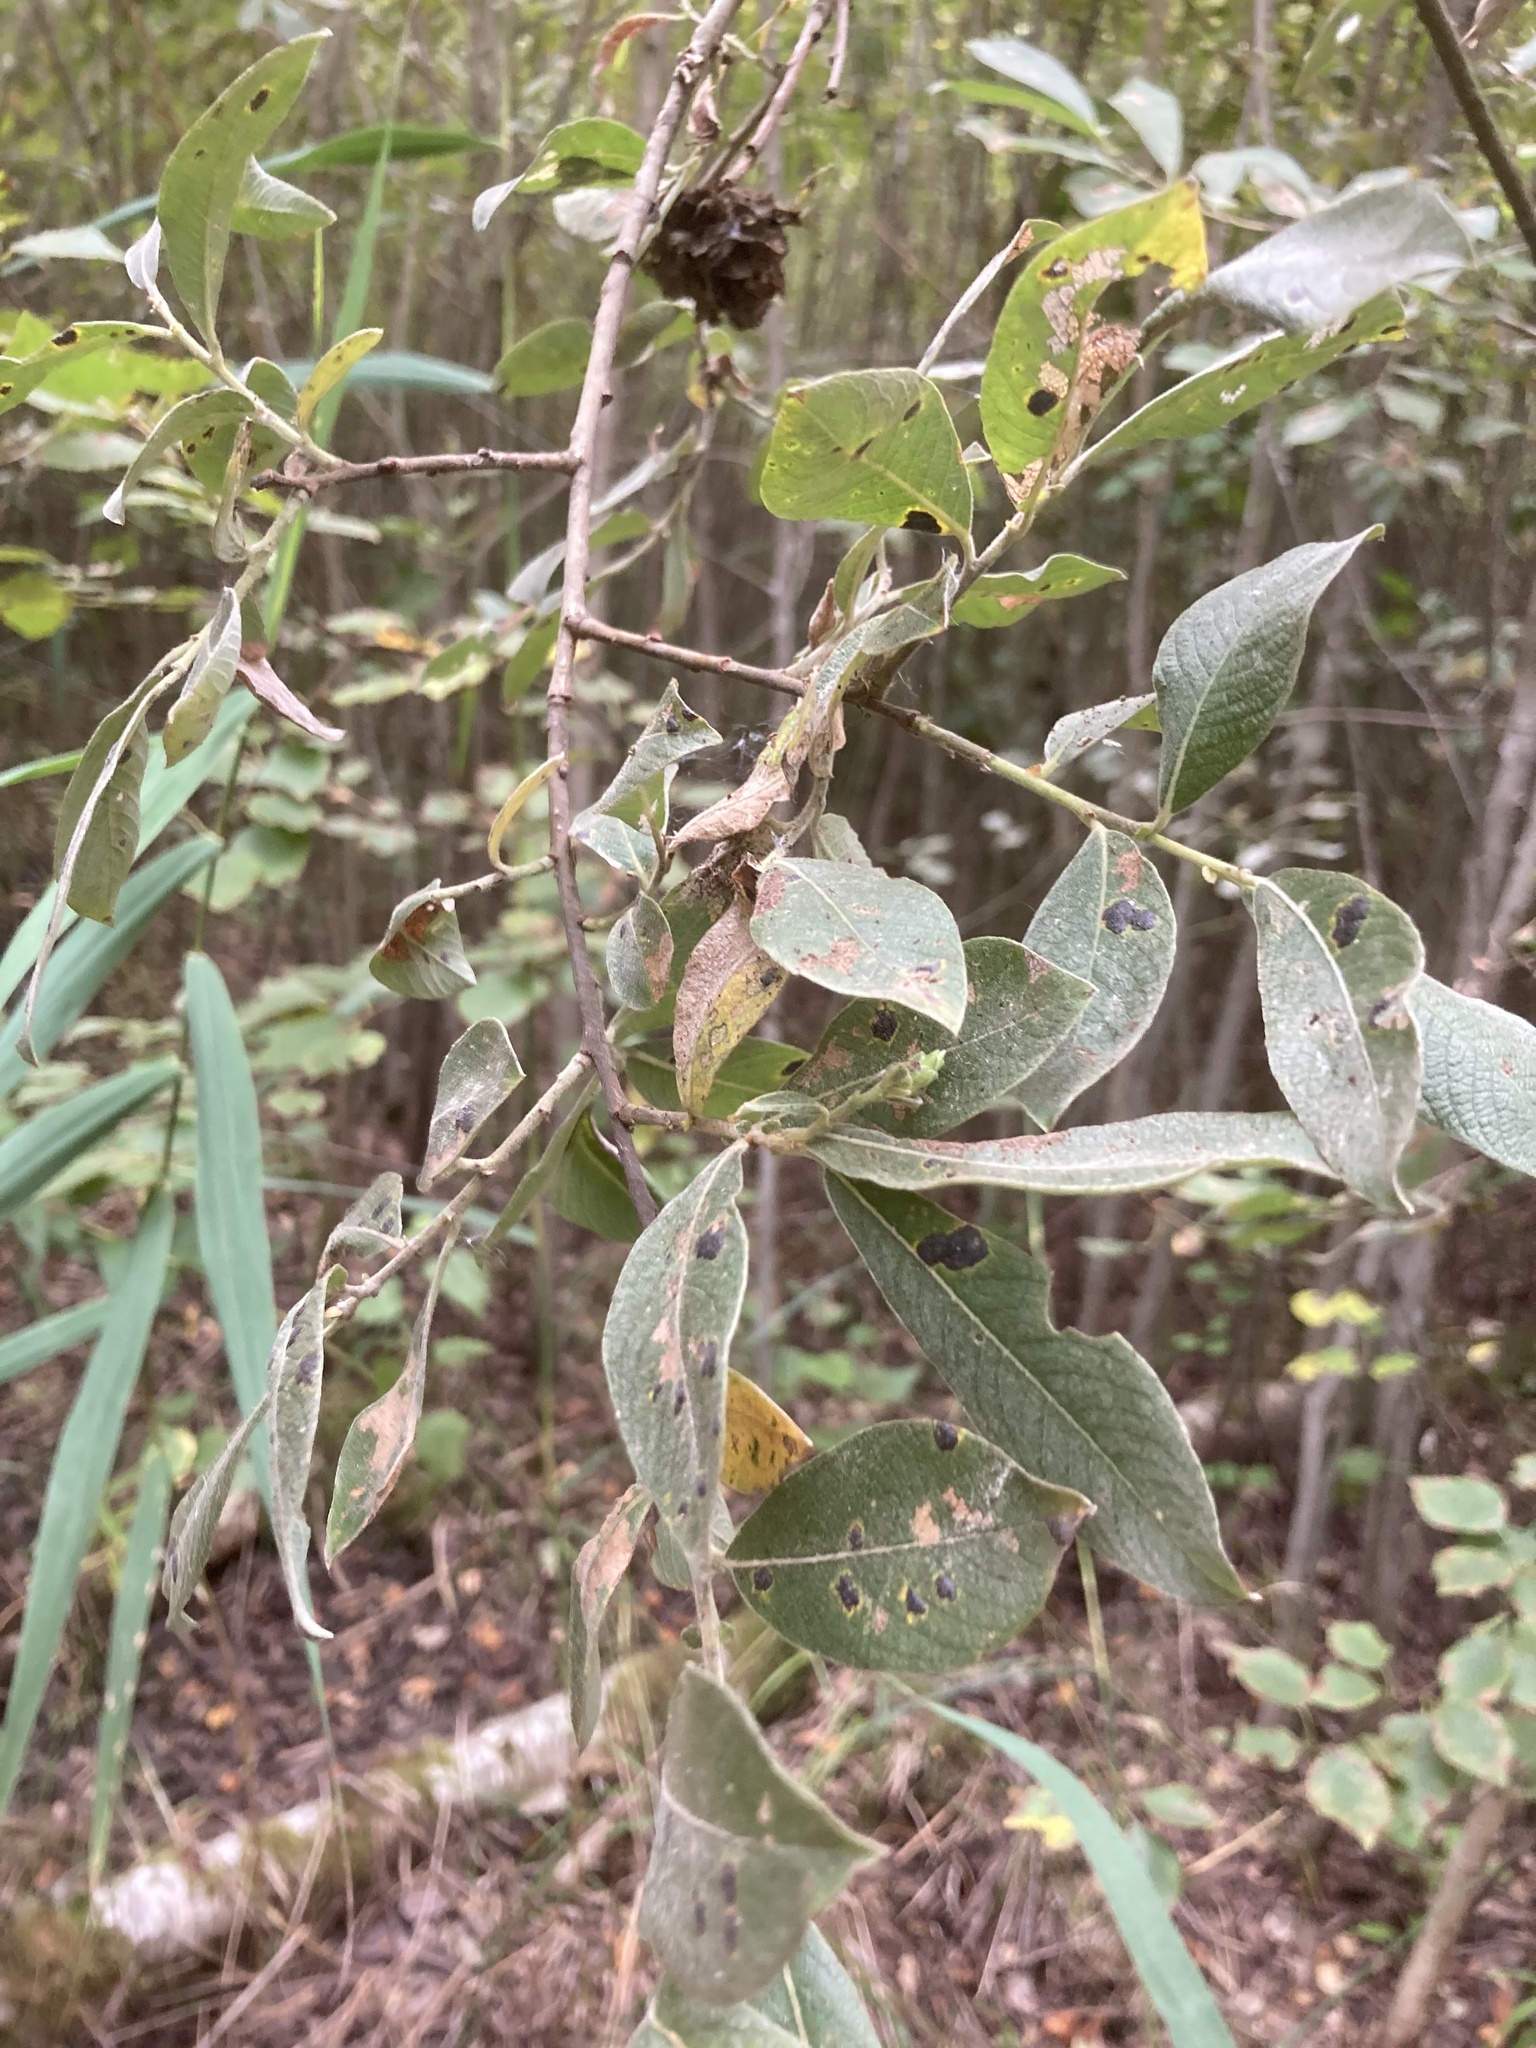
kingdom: Plantae
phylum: Tracheophyta
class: Magnoliopsida
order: Malpighiales
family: Salicaceae
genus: Salix
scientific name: Salix cinerea
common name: Common sallow
